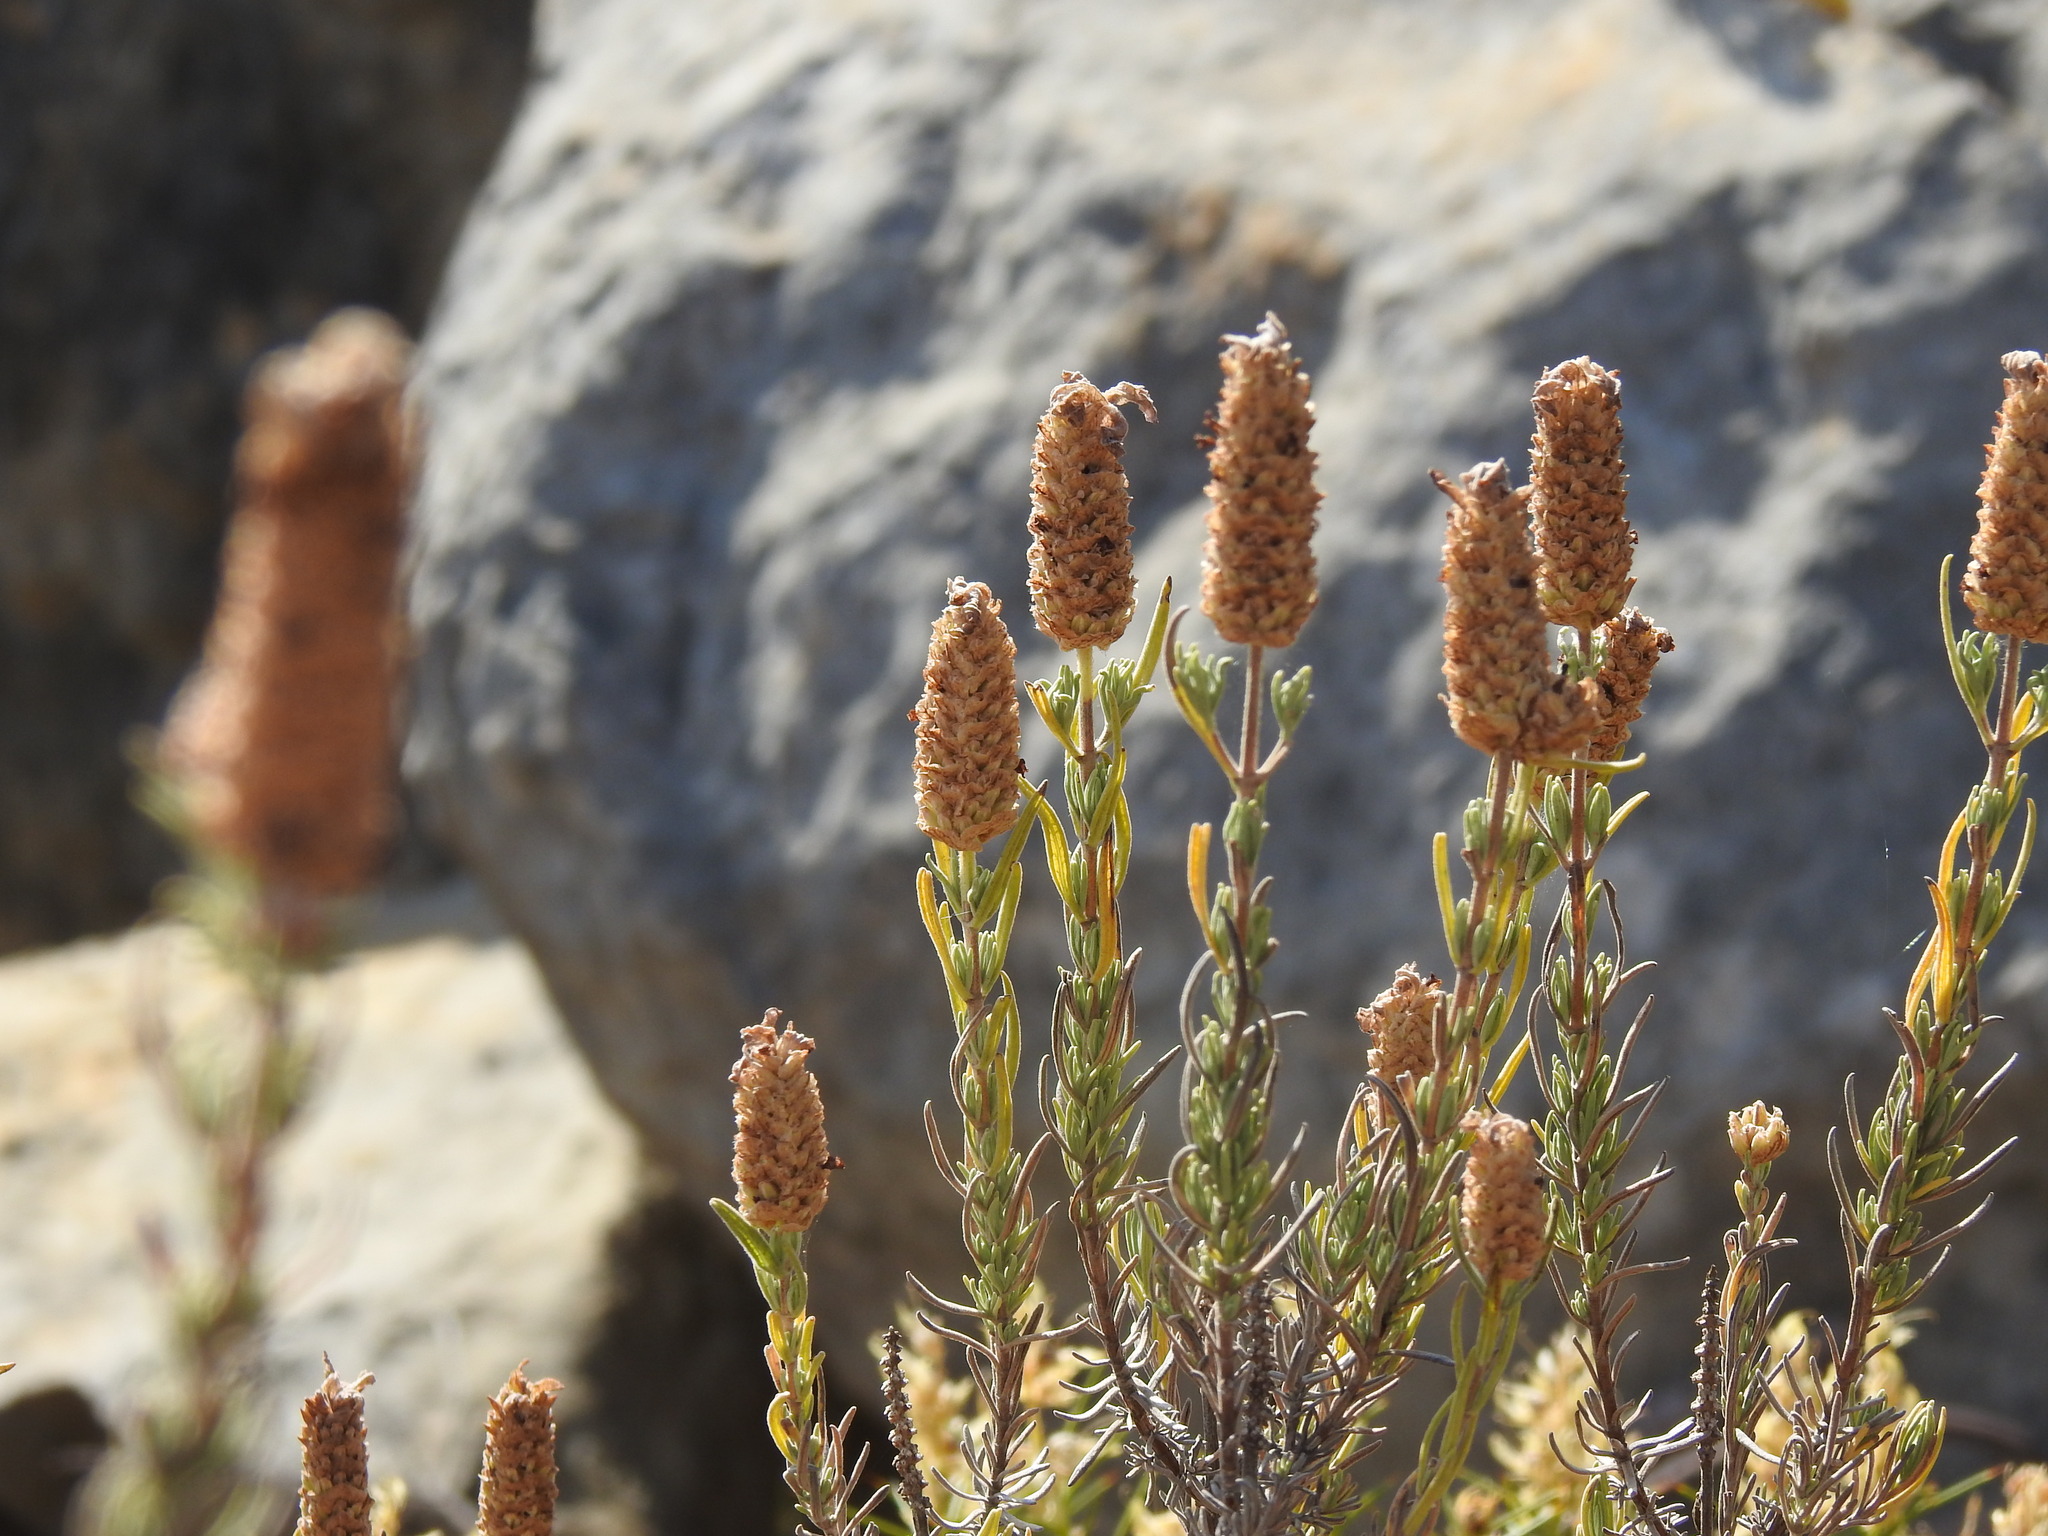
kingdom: Plantae
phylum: Tracheophyta
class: Magnoliopsida
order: Lamiales
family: Lamiaceae
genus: Lavandula
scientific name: Lavandula stoechas
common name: French lavender
